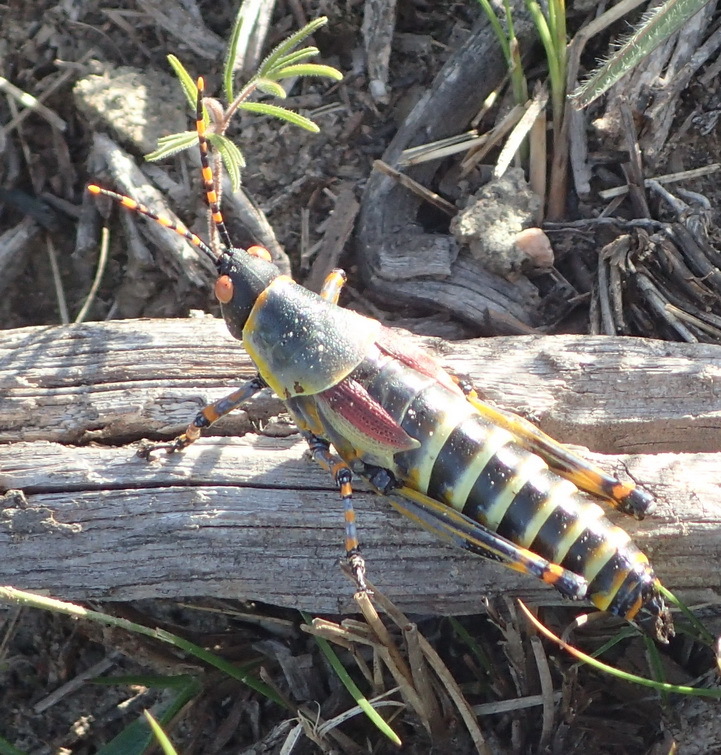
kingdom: Animalia
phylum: Arthropoda
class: Insecta
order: Orthoptera
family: Pyrgomorphidae
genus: Zonocerus
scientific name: Zonocerus elegans
